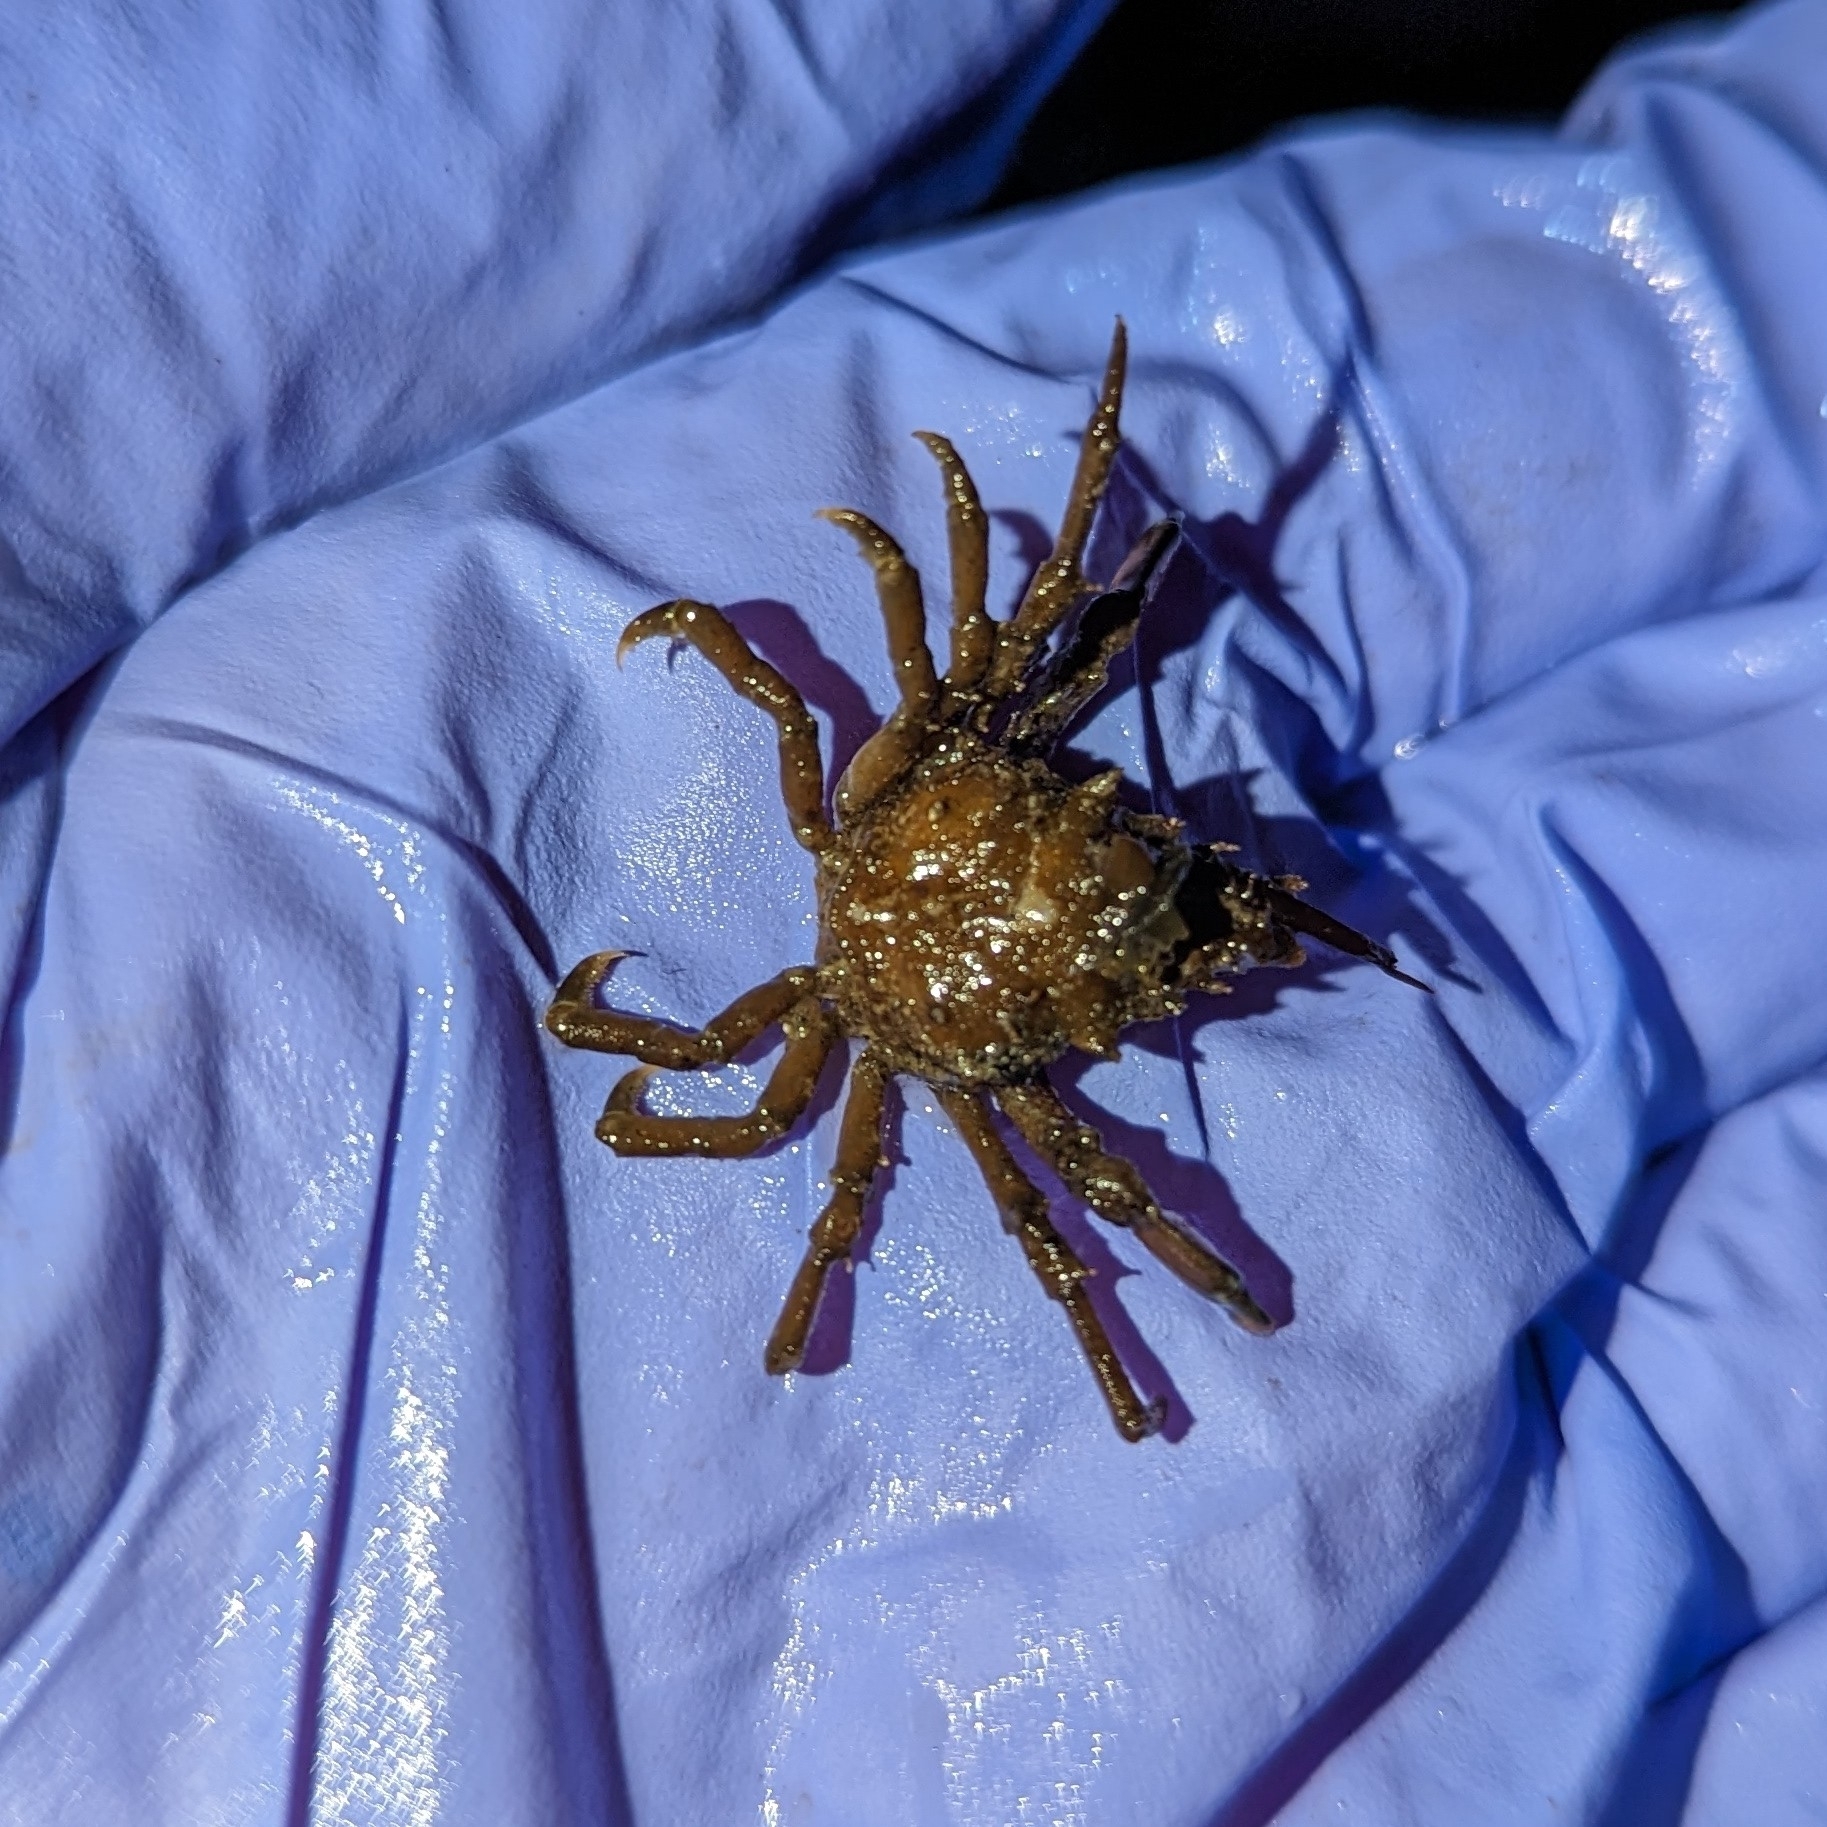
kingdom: Animalia
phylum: Arthropoda
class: Malacostraca
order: Decapoda
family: Epialtidae
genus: Pugettia
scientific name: Pugettia gracilis
